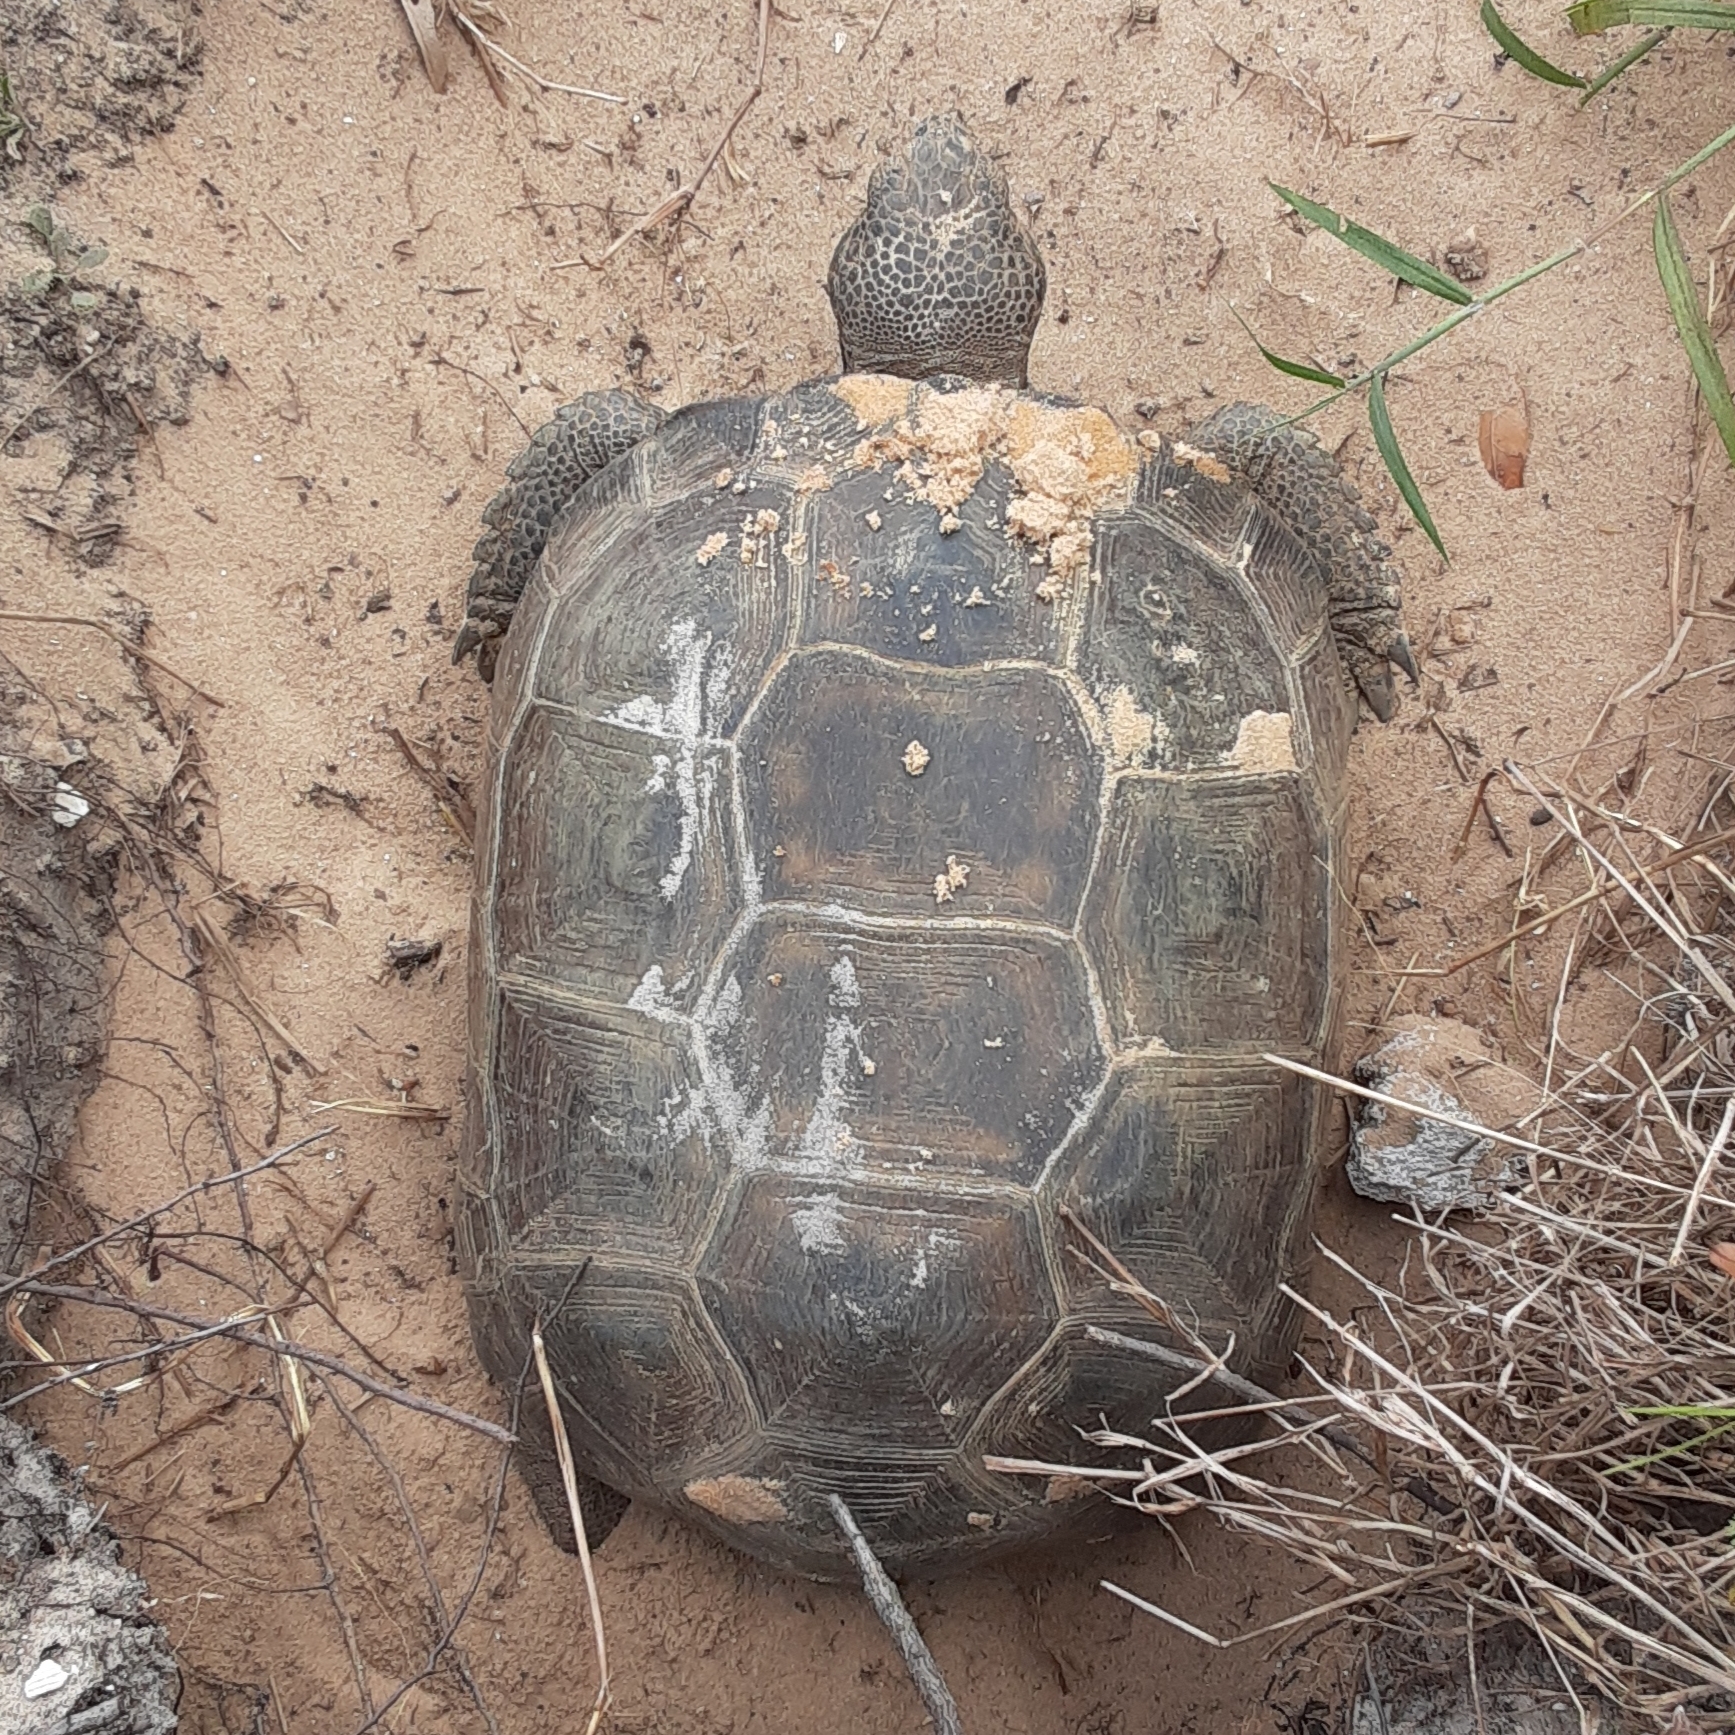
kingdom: Animalia
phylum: Chordata
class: Testudines
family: Testudinidae
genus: Gopherus
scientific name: Gopherus polyphemus
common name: Florida gopher tortoise
